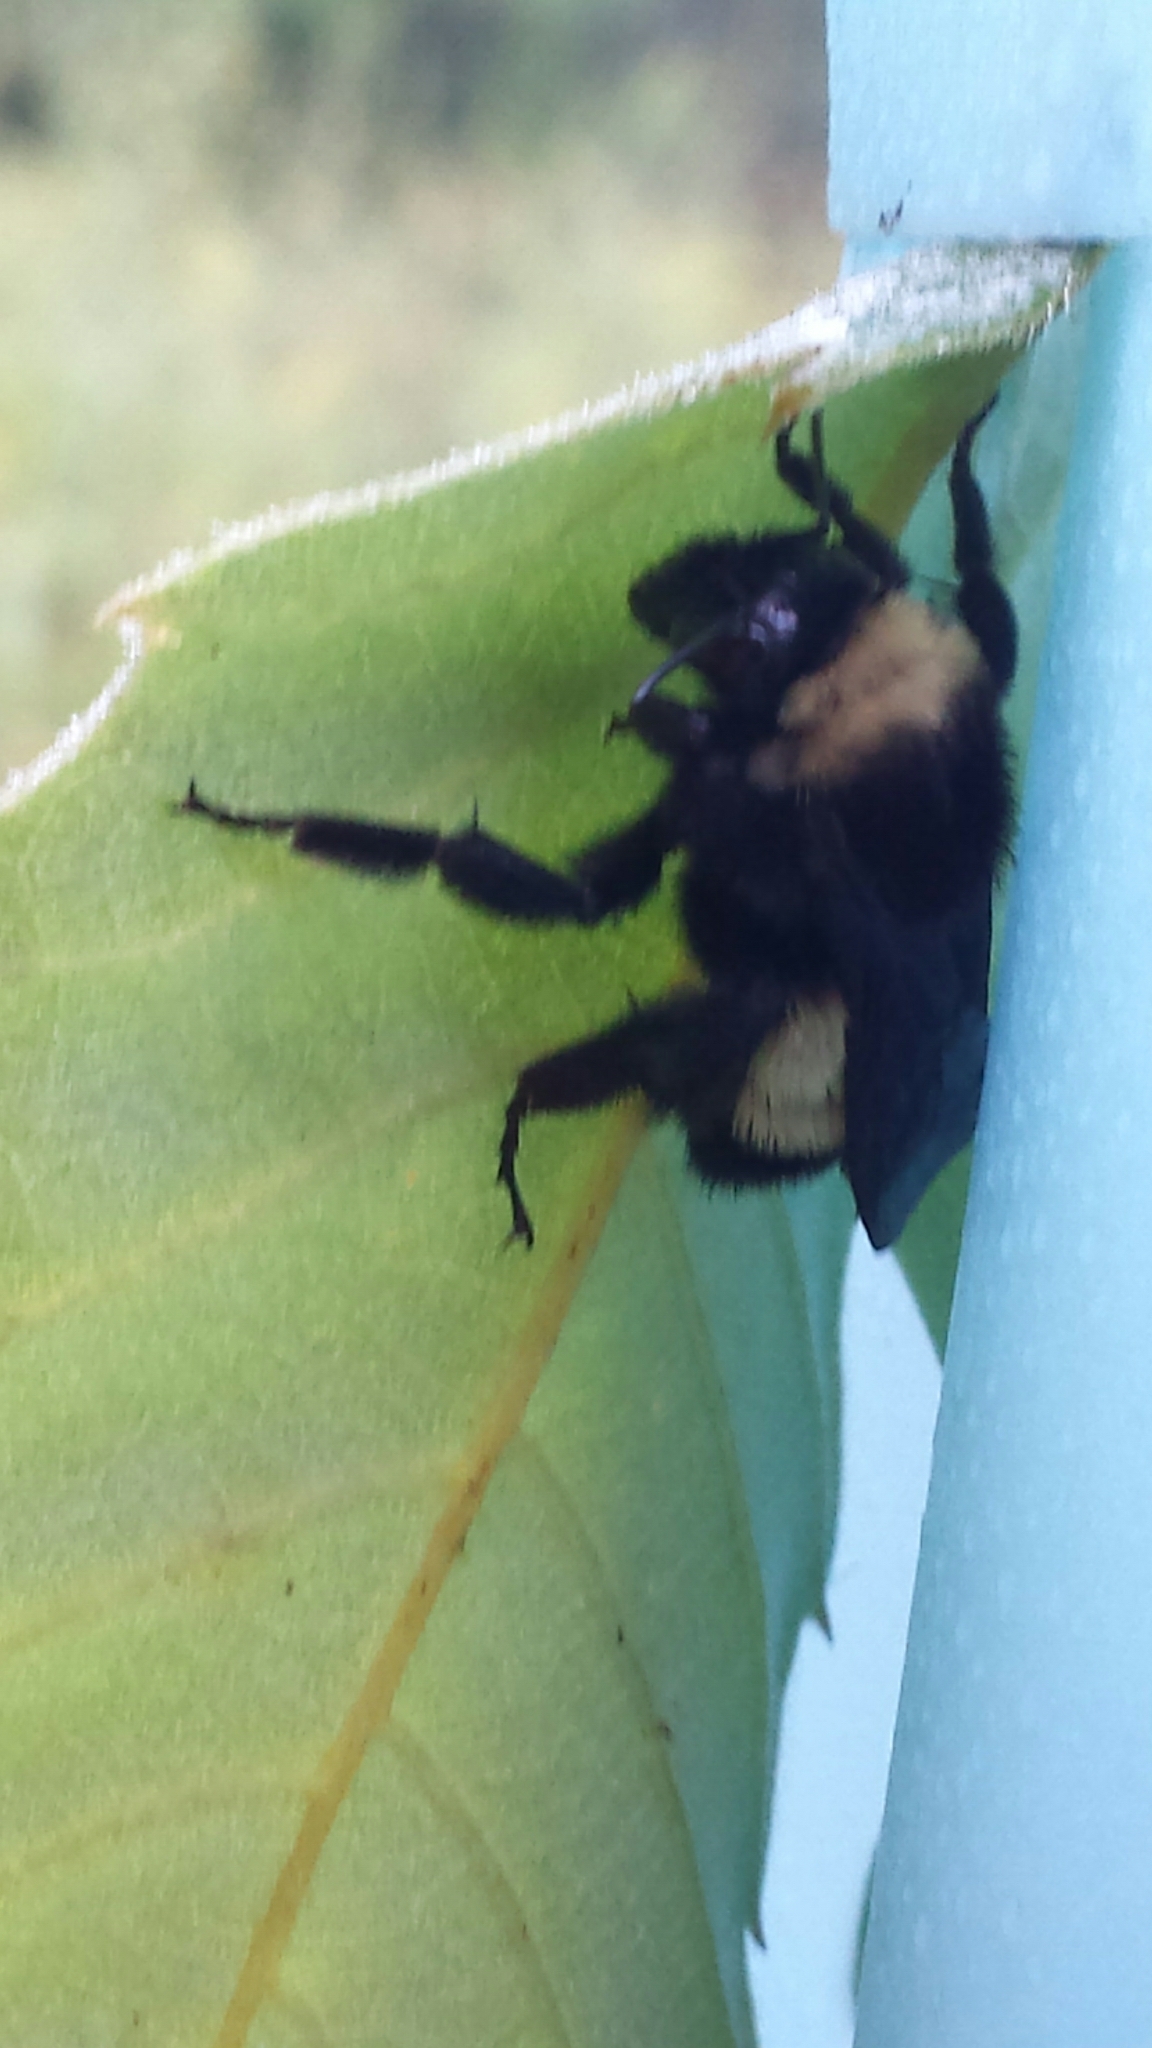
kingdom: Animalia
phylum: Arthropoda
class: Insecta
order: Hymenoptera
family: Apidae
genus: Bombus
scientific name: Bombus pensylvanicus
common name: Bumble bee
